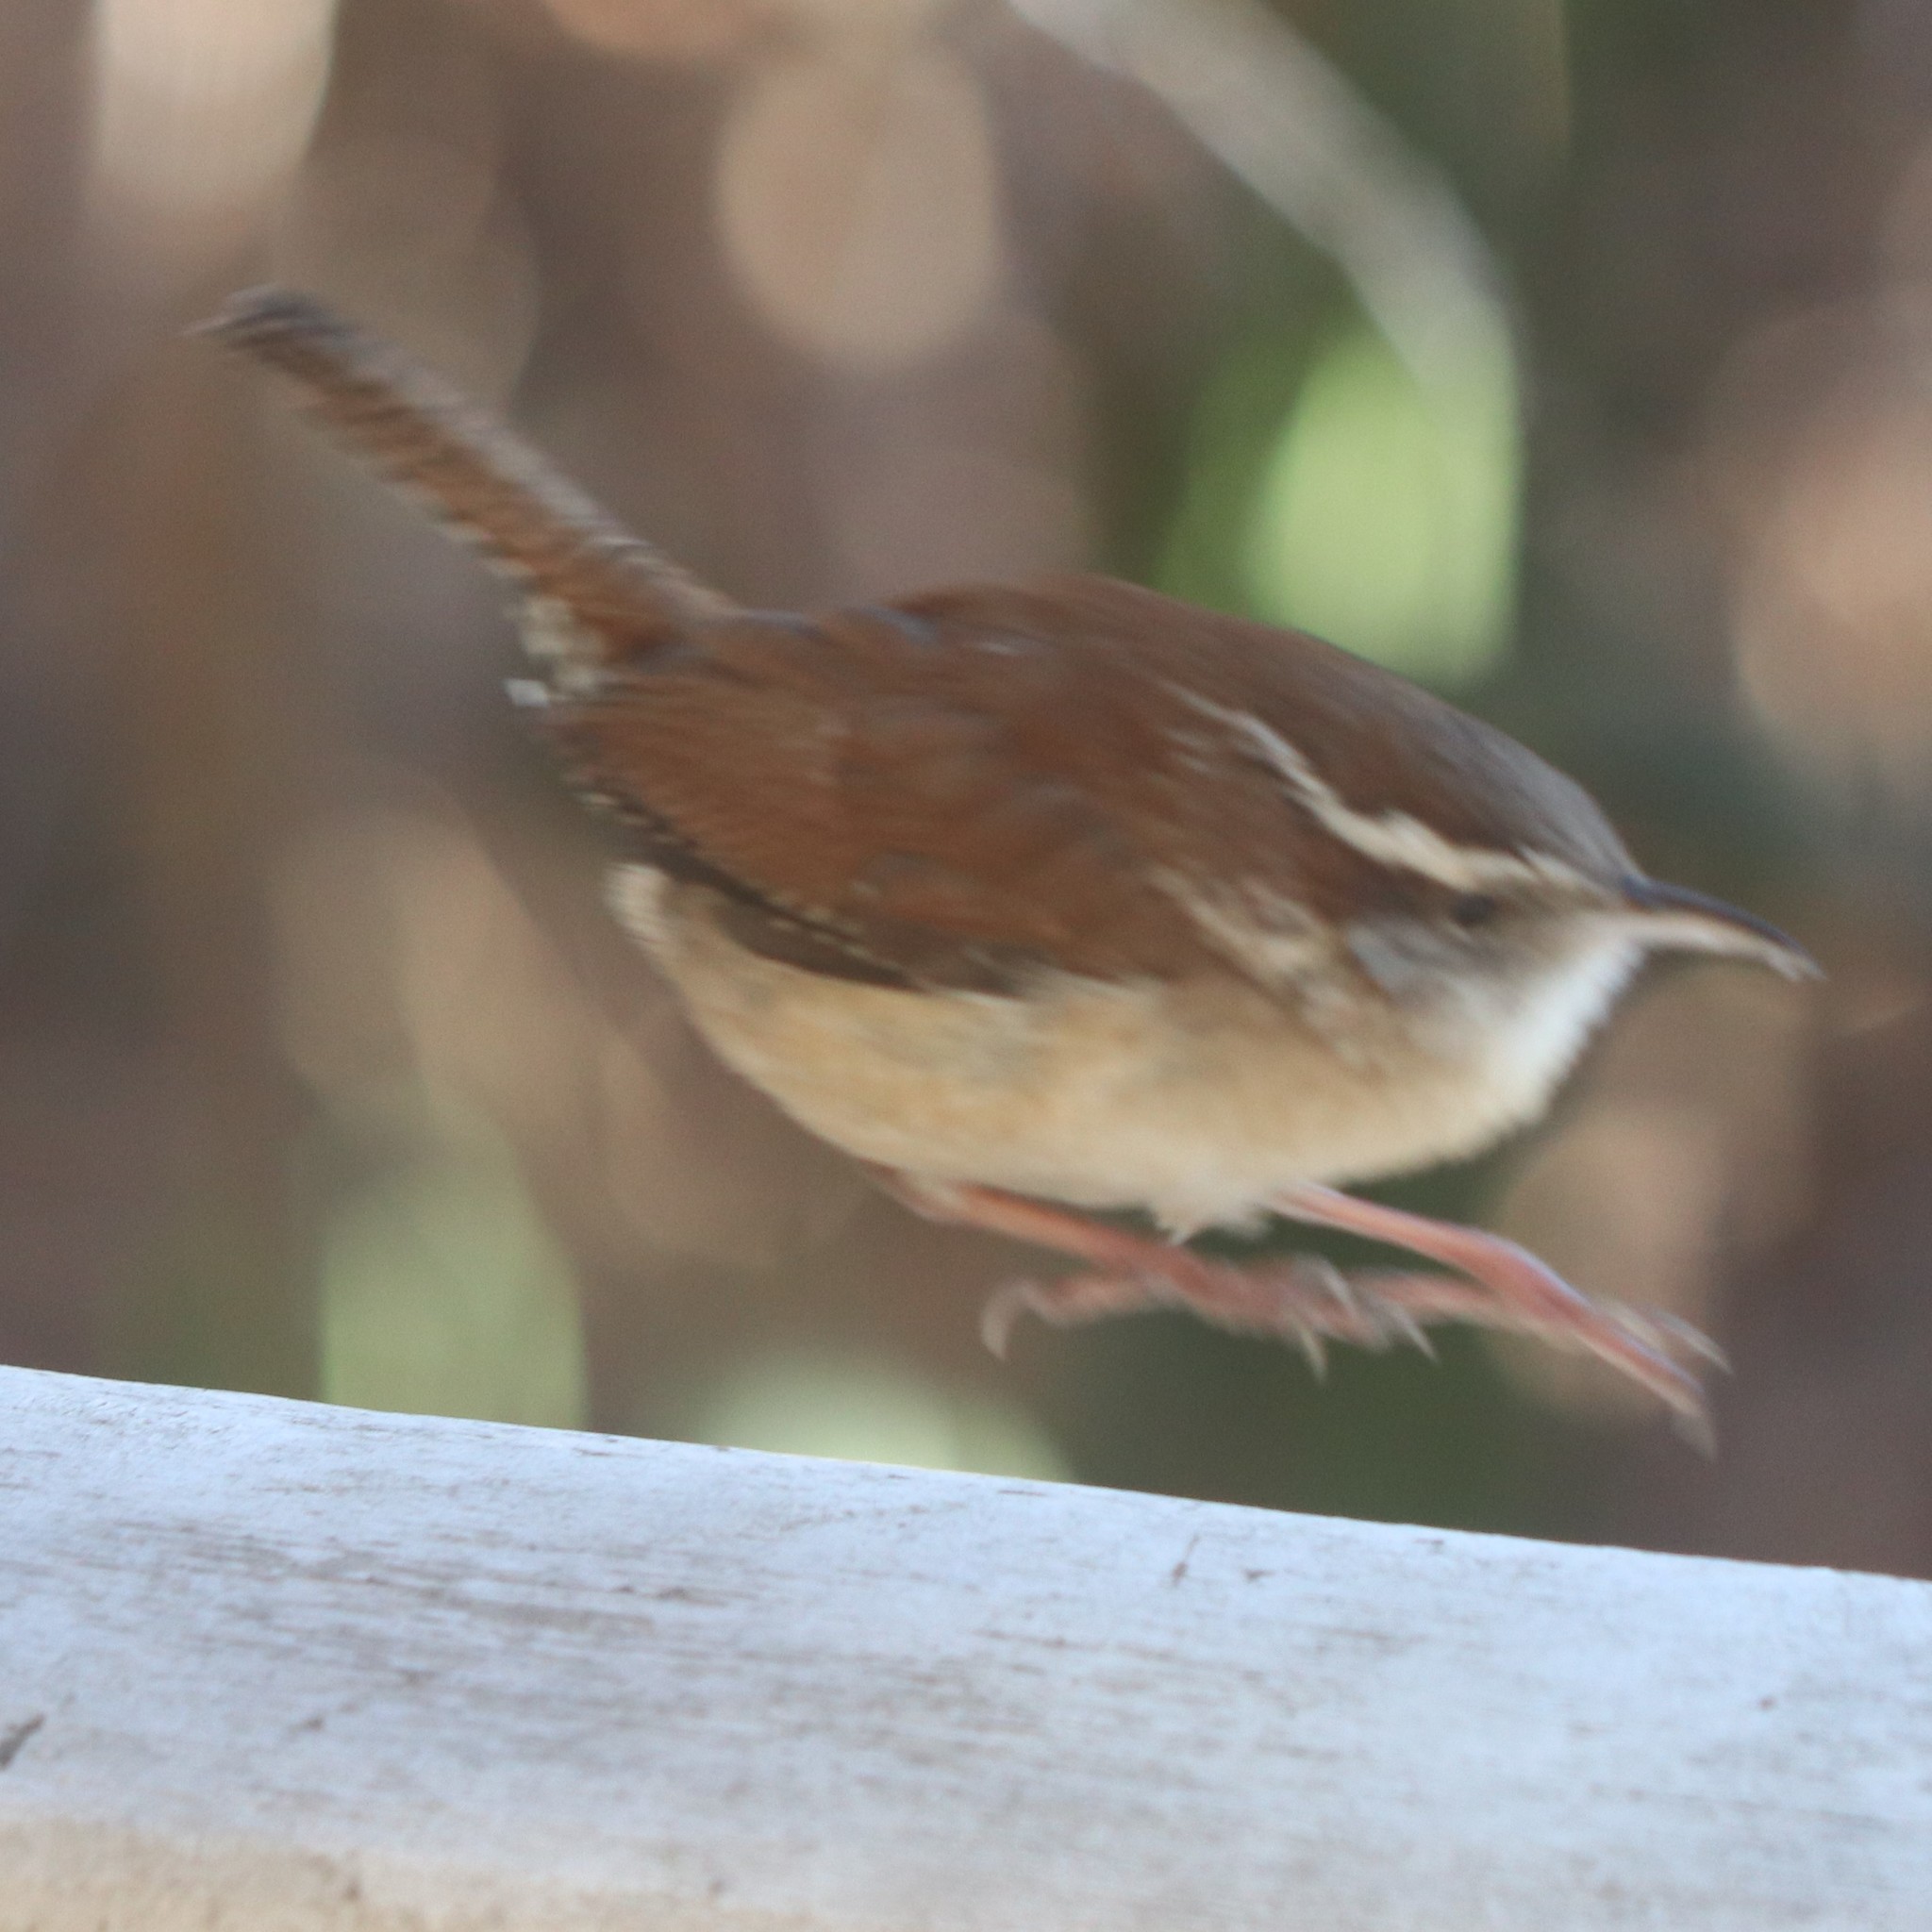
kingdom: Animalia
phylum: Chordata
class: Aves
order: Passeriformes
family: Troglodytidae
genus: Thryothorus
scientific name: Thryothorus ludovicianus
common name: Carolina wren
